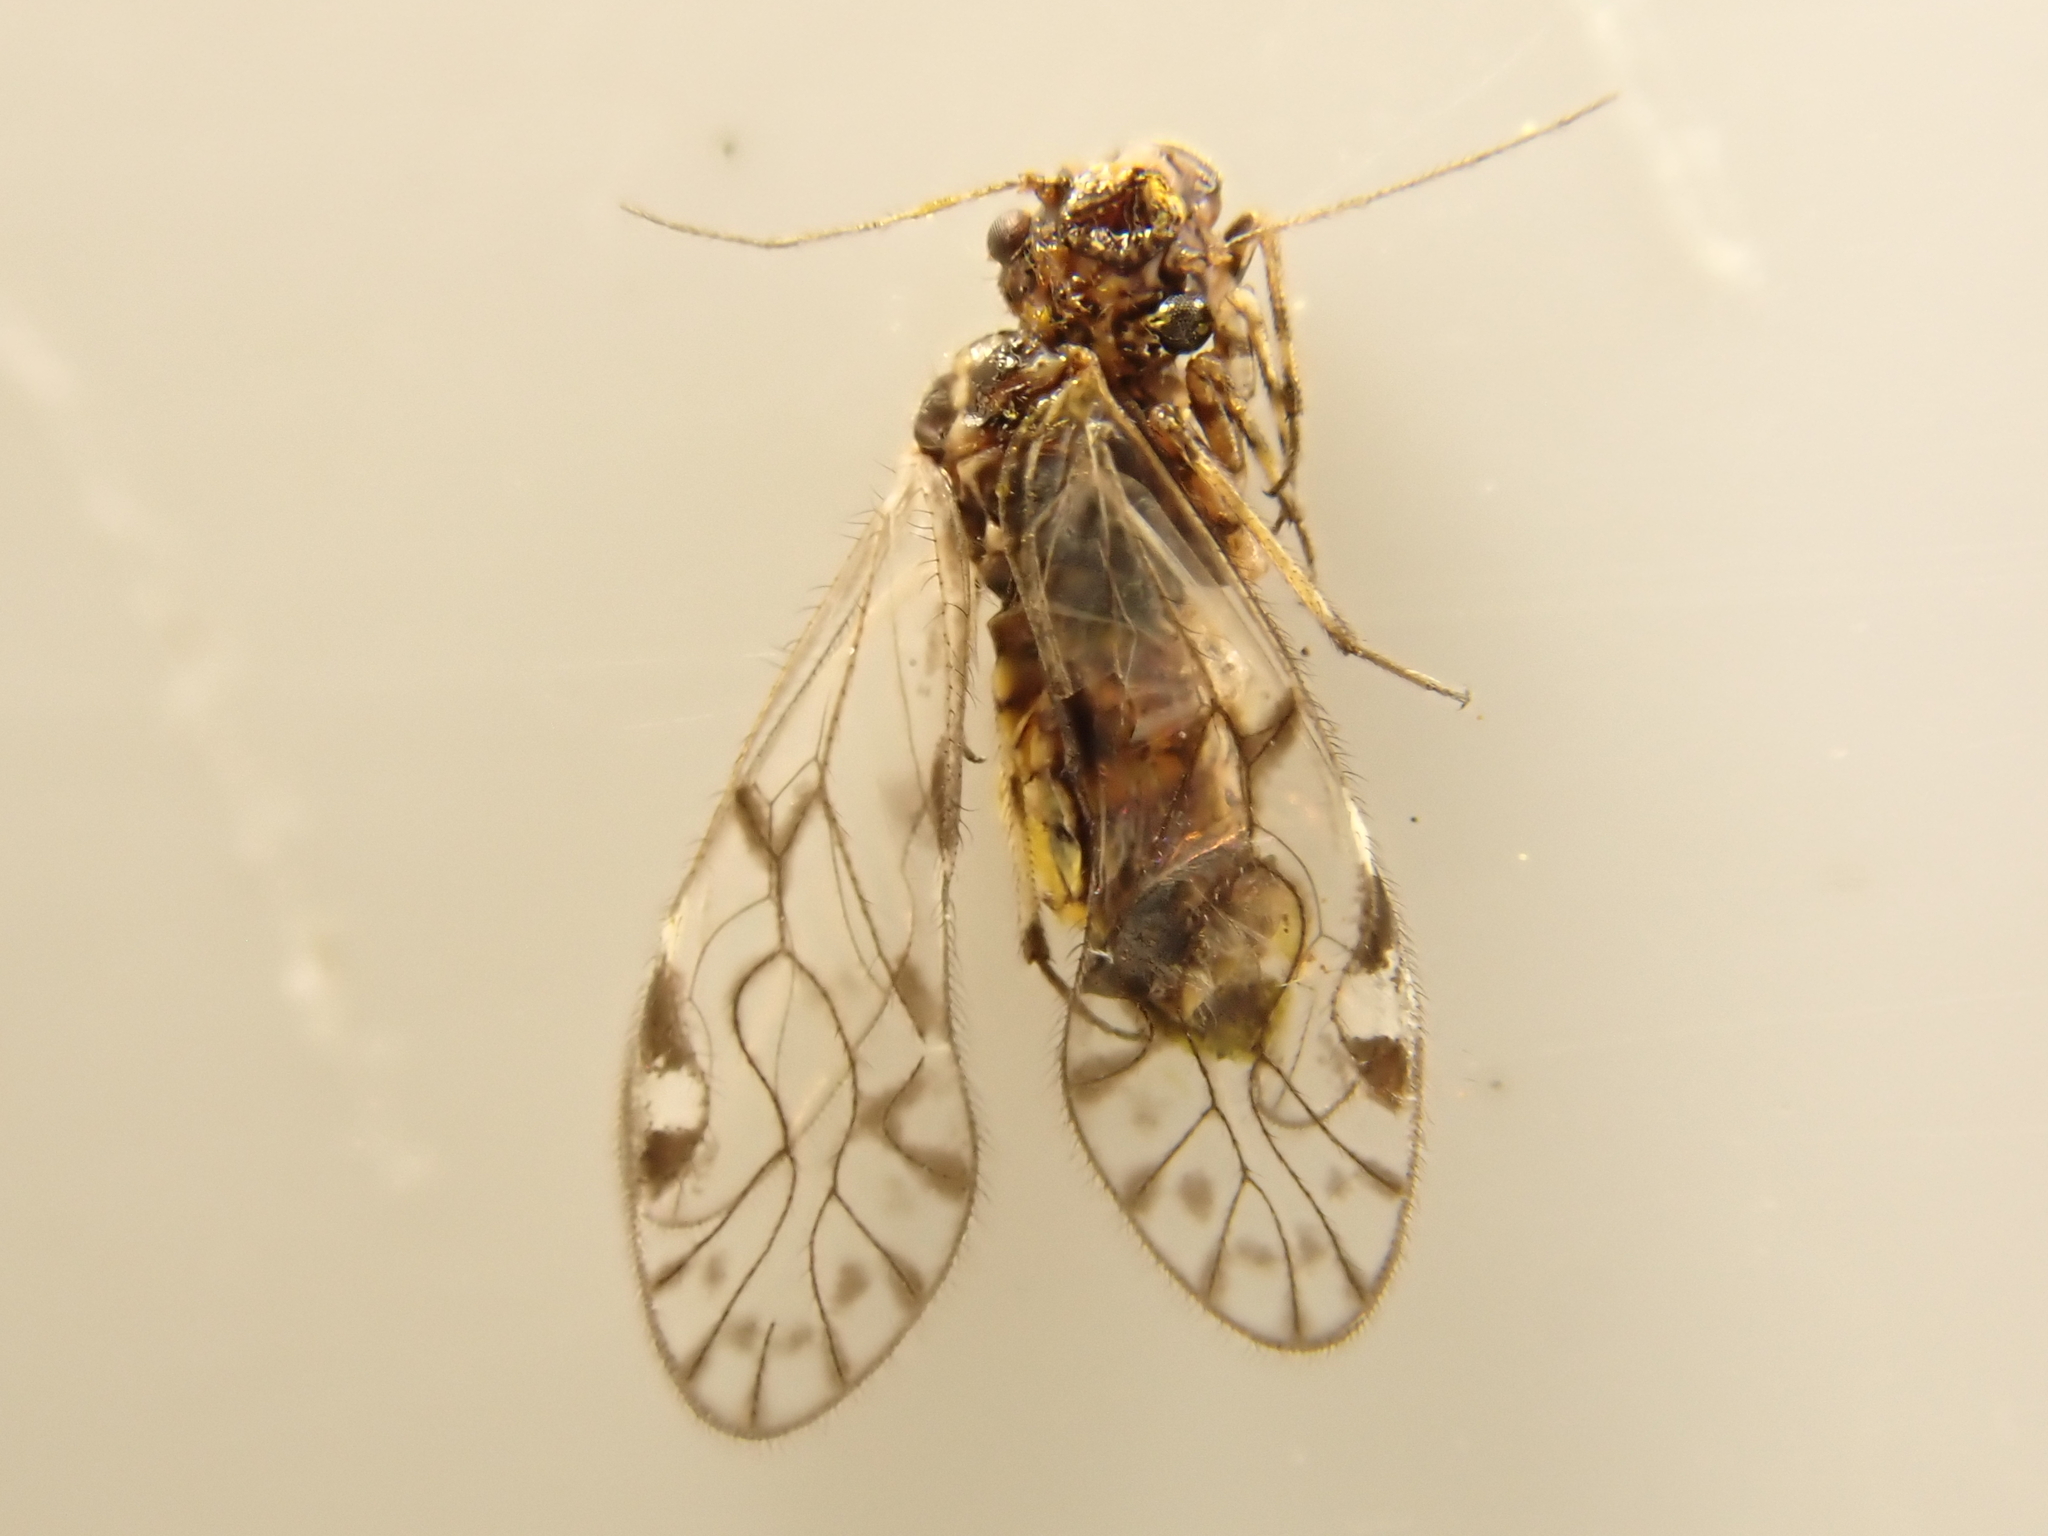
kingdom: Animalia
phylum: Arthropoda
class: Insecta
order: Psocodea
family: Philotarsidae
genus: Haplophallus
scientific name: Haplophallus maculatus
